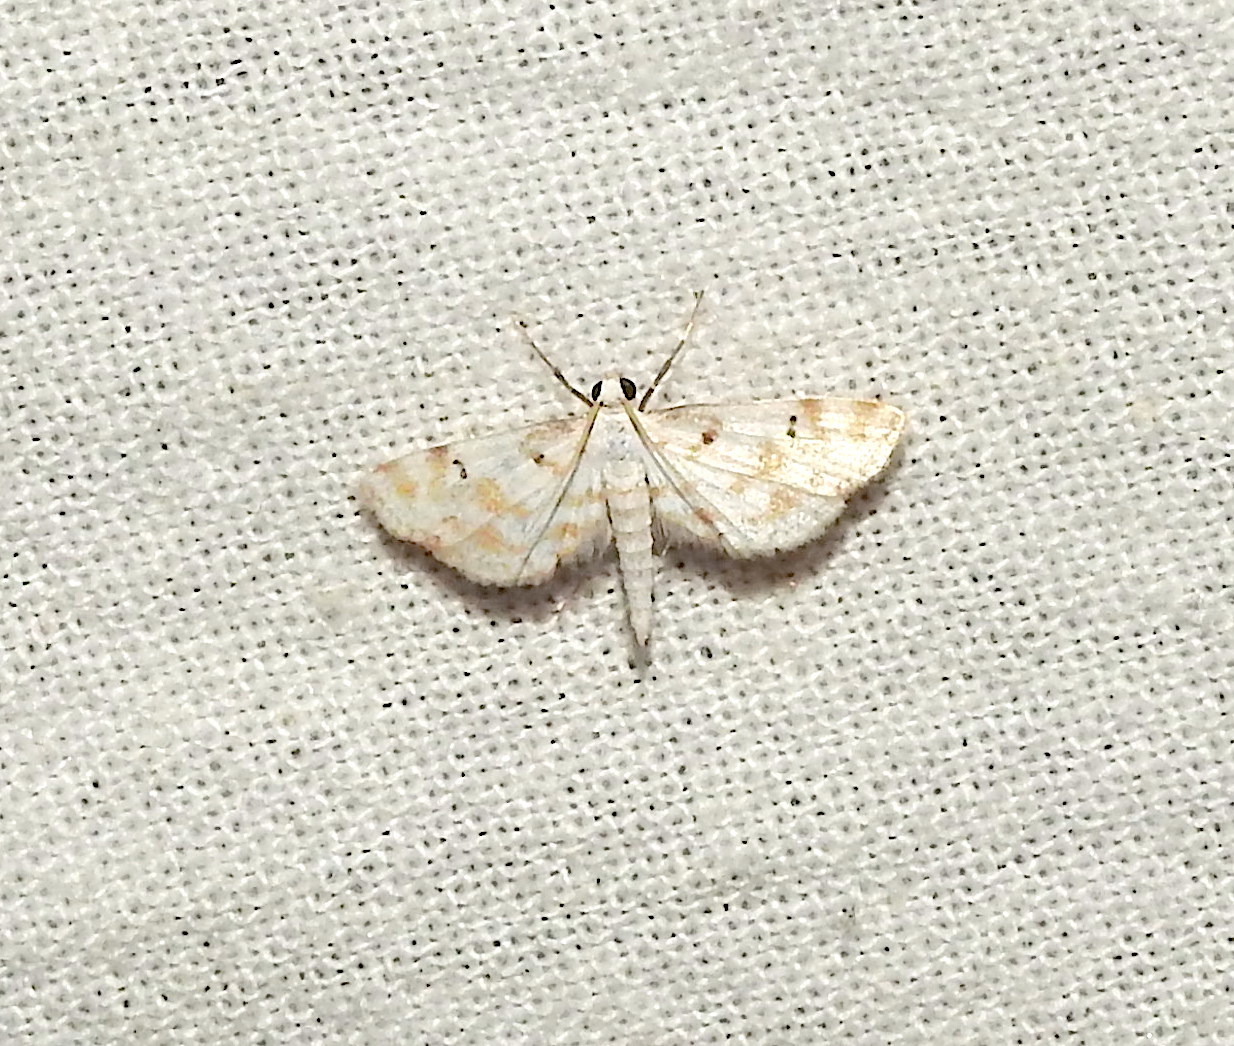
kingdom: Animalia
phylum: Arthropoda
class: Insecta
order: Lepidoptera
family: Crambidae
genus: Parapoynx
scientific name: Parapoynx stagnalis
